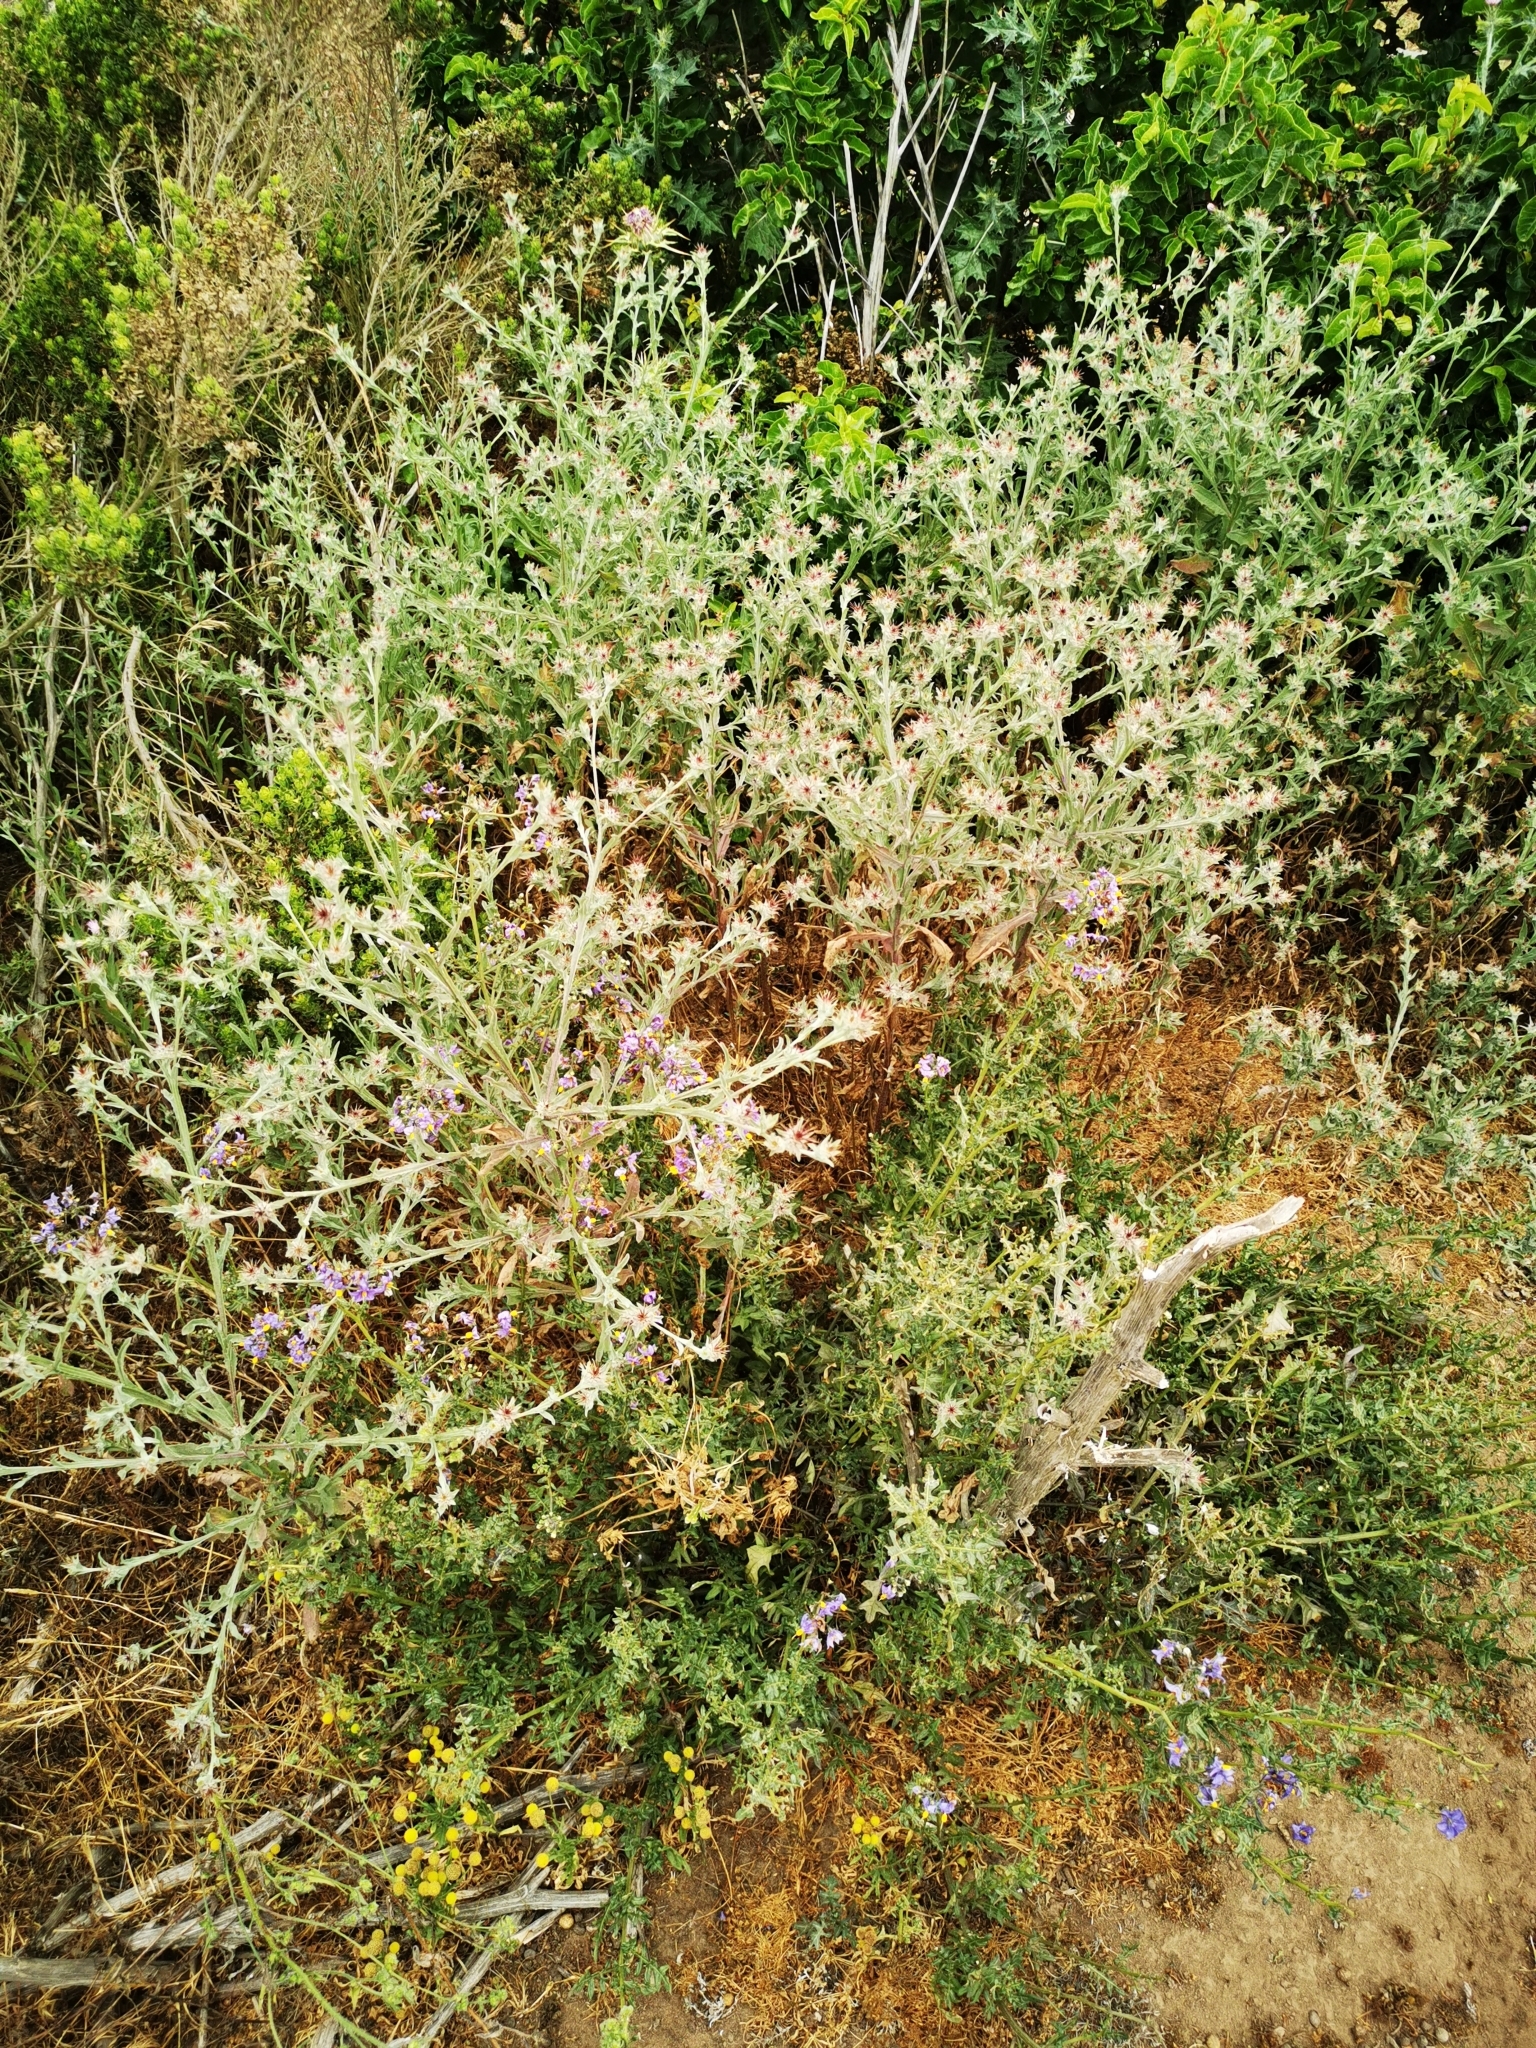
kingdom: Plantae
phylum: Tracheophyta
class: Magnoliopsida
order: Asterales
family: Asteraceae
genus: Centaurea
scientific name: Centaurea melitensis
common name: Maltese star-thistle
